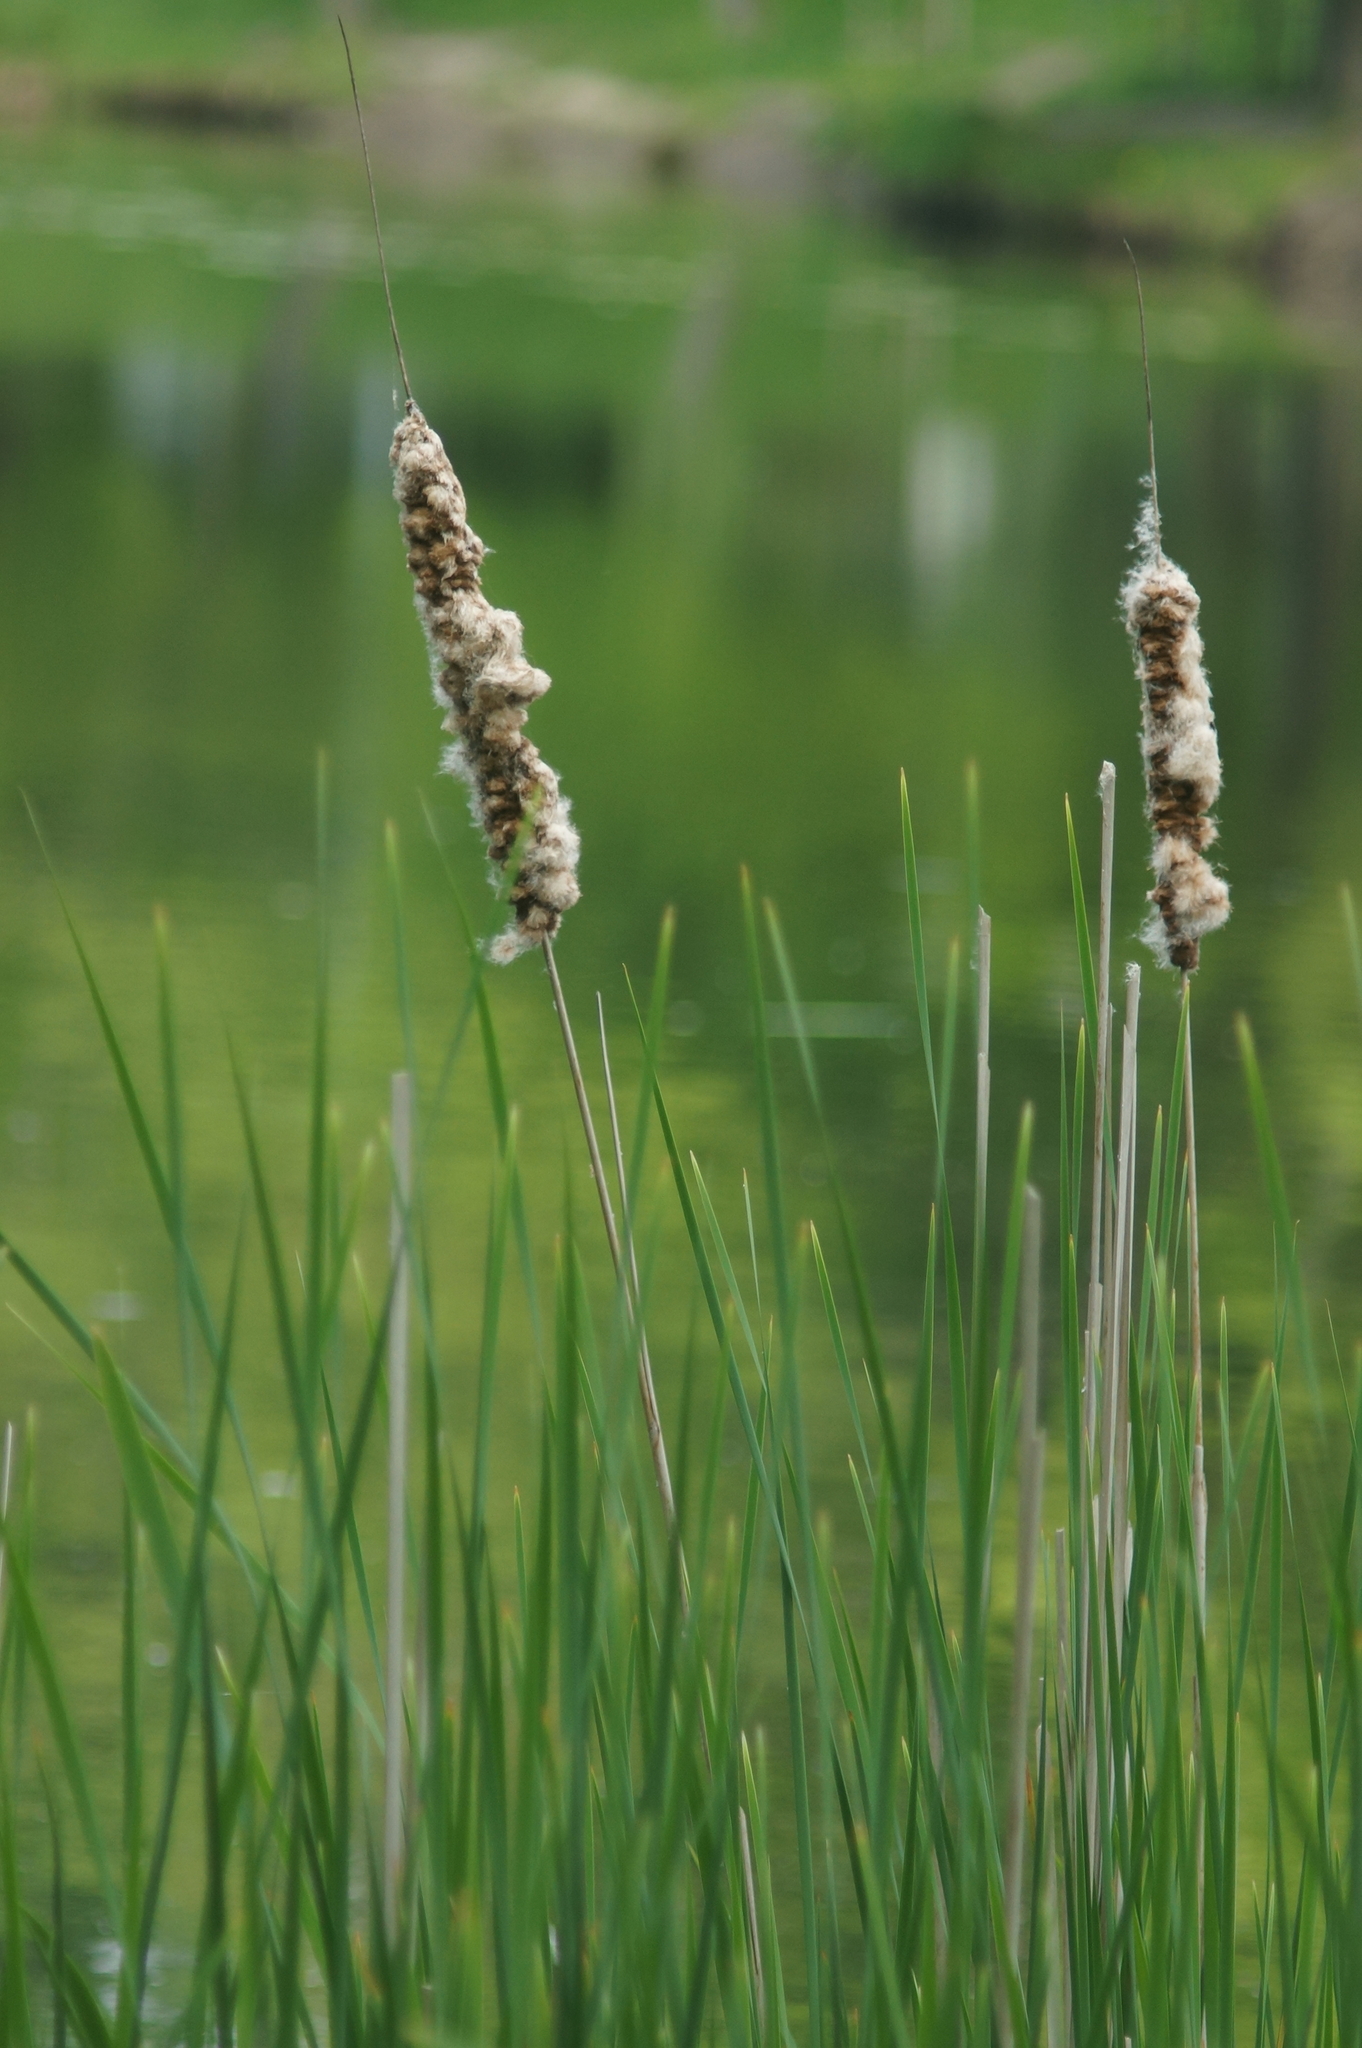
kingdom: Plantae
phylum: Tracheophyta
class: Liliopsida
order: Poales
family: Typhaceae
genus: Typha
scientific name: Typha angustifolia
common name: Lesser bulrush
